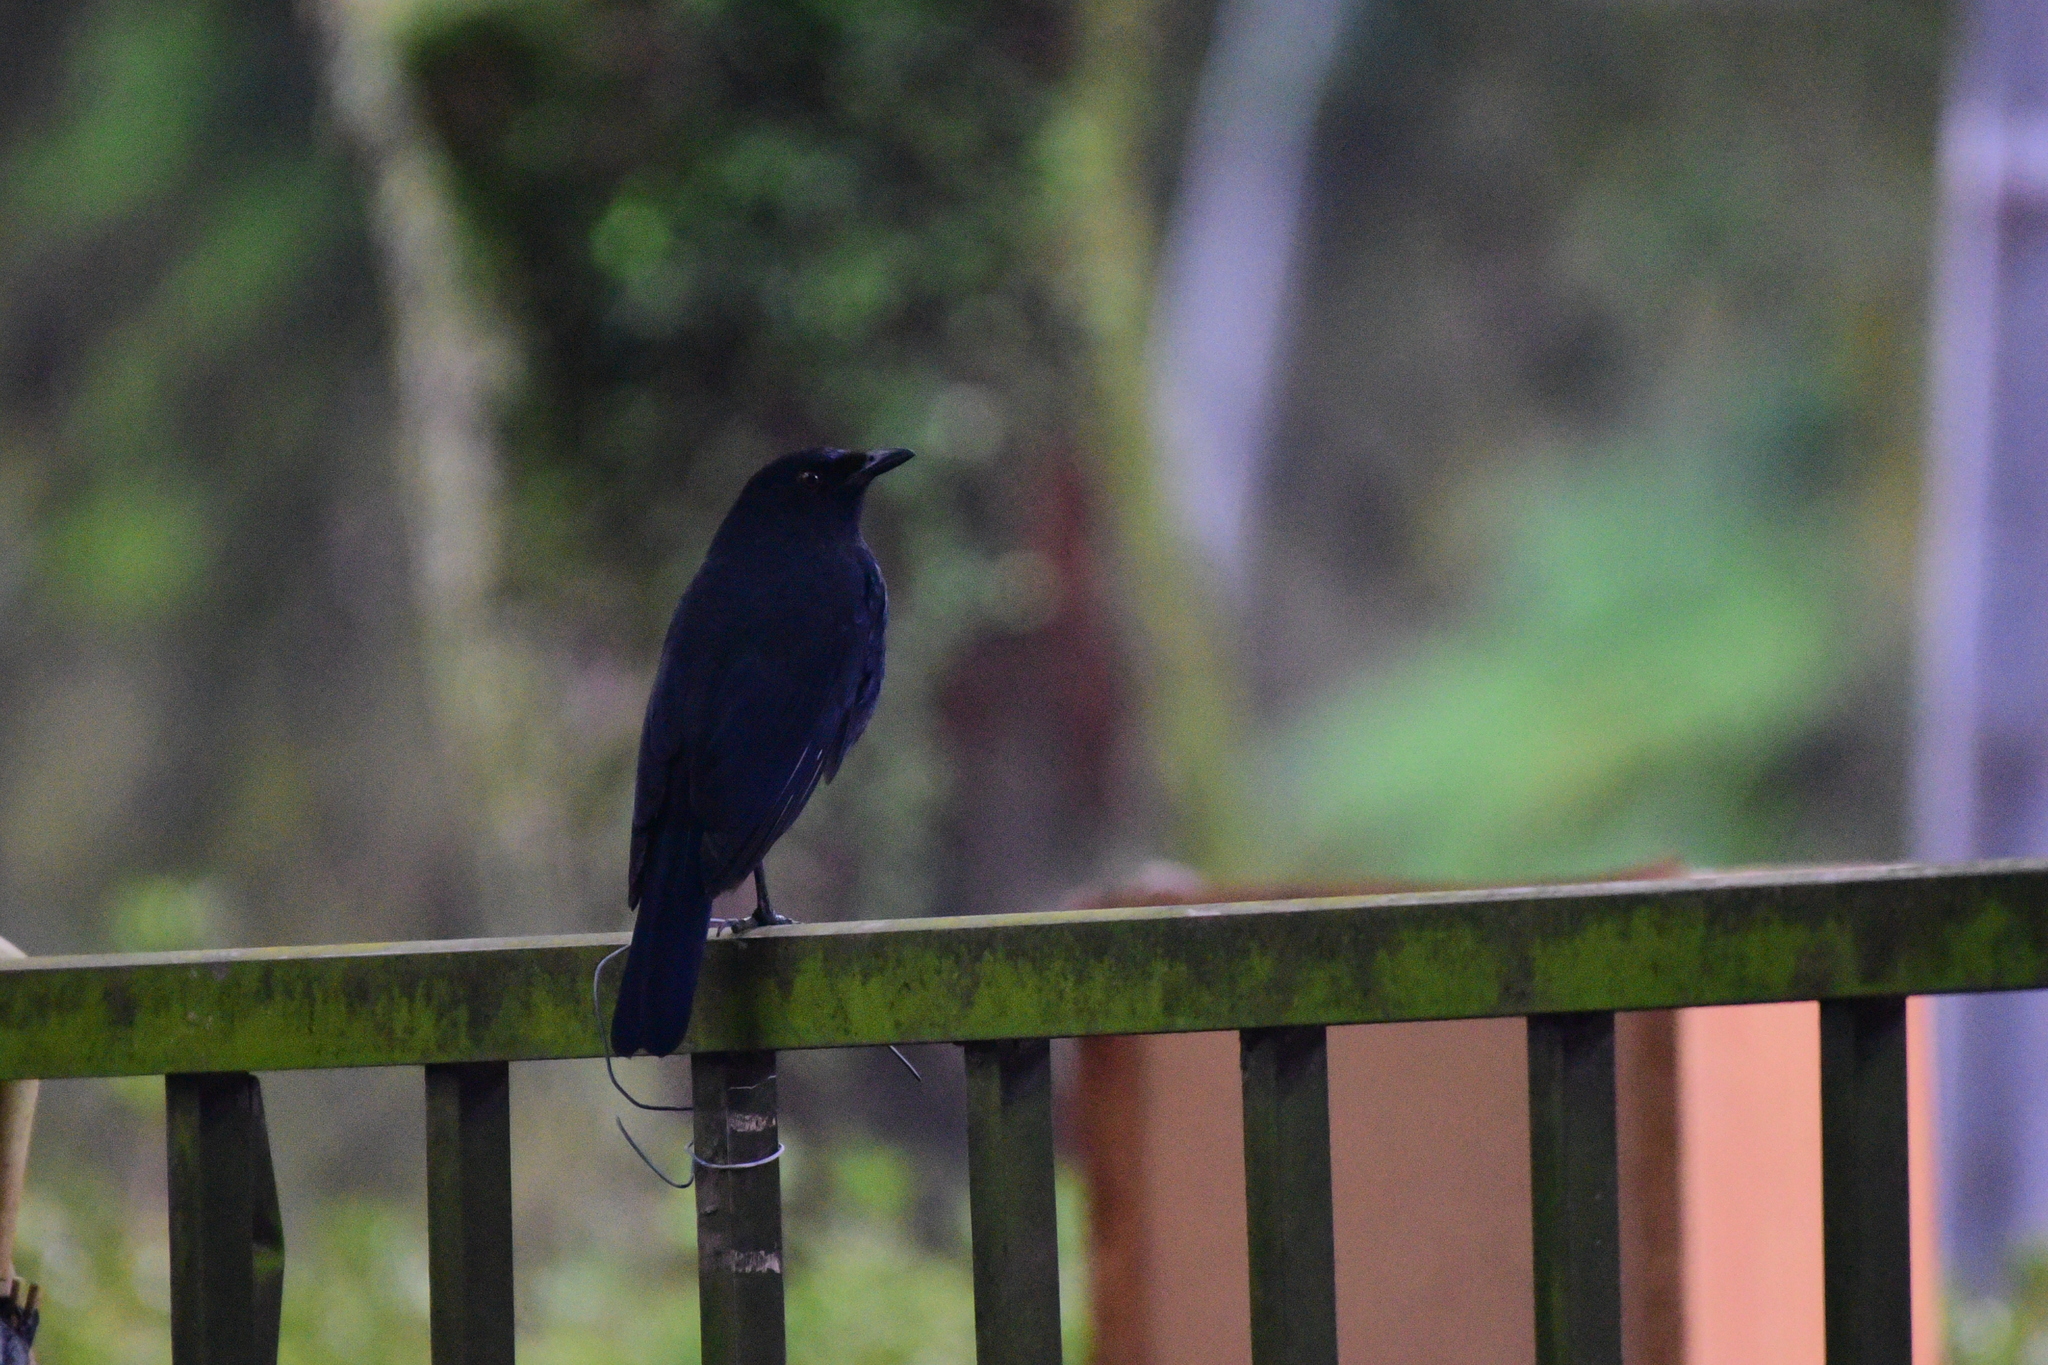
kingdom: Animalia
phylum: Chordata
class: Aves
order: Passeriformes
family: Muscicapidae
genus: Myophonus
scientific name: Myophonus insularis
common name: Taiwan whistling-thrush
